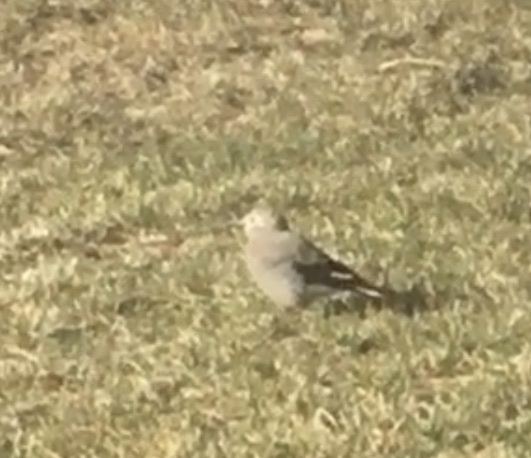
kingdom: Animalia
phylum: Chordata
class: Aves
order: Passeriformes
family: Corvidae
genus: Nucifraga
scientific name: Nucifraga columbiana
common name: Clark's nutcracker
